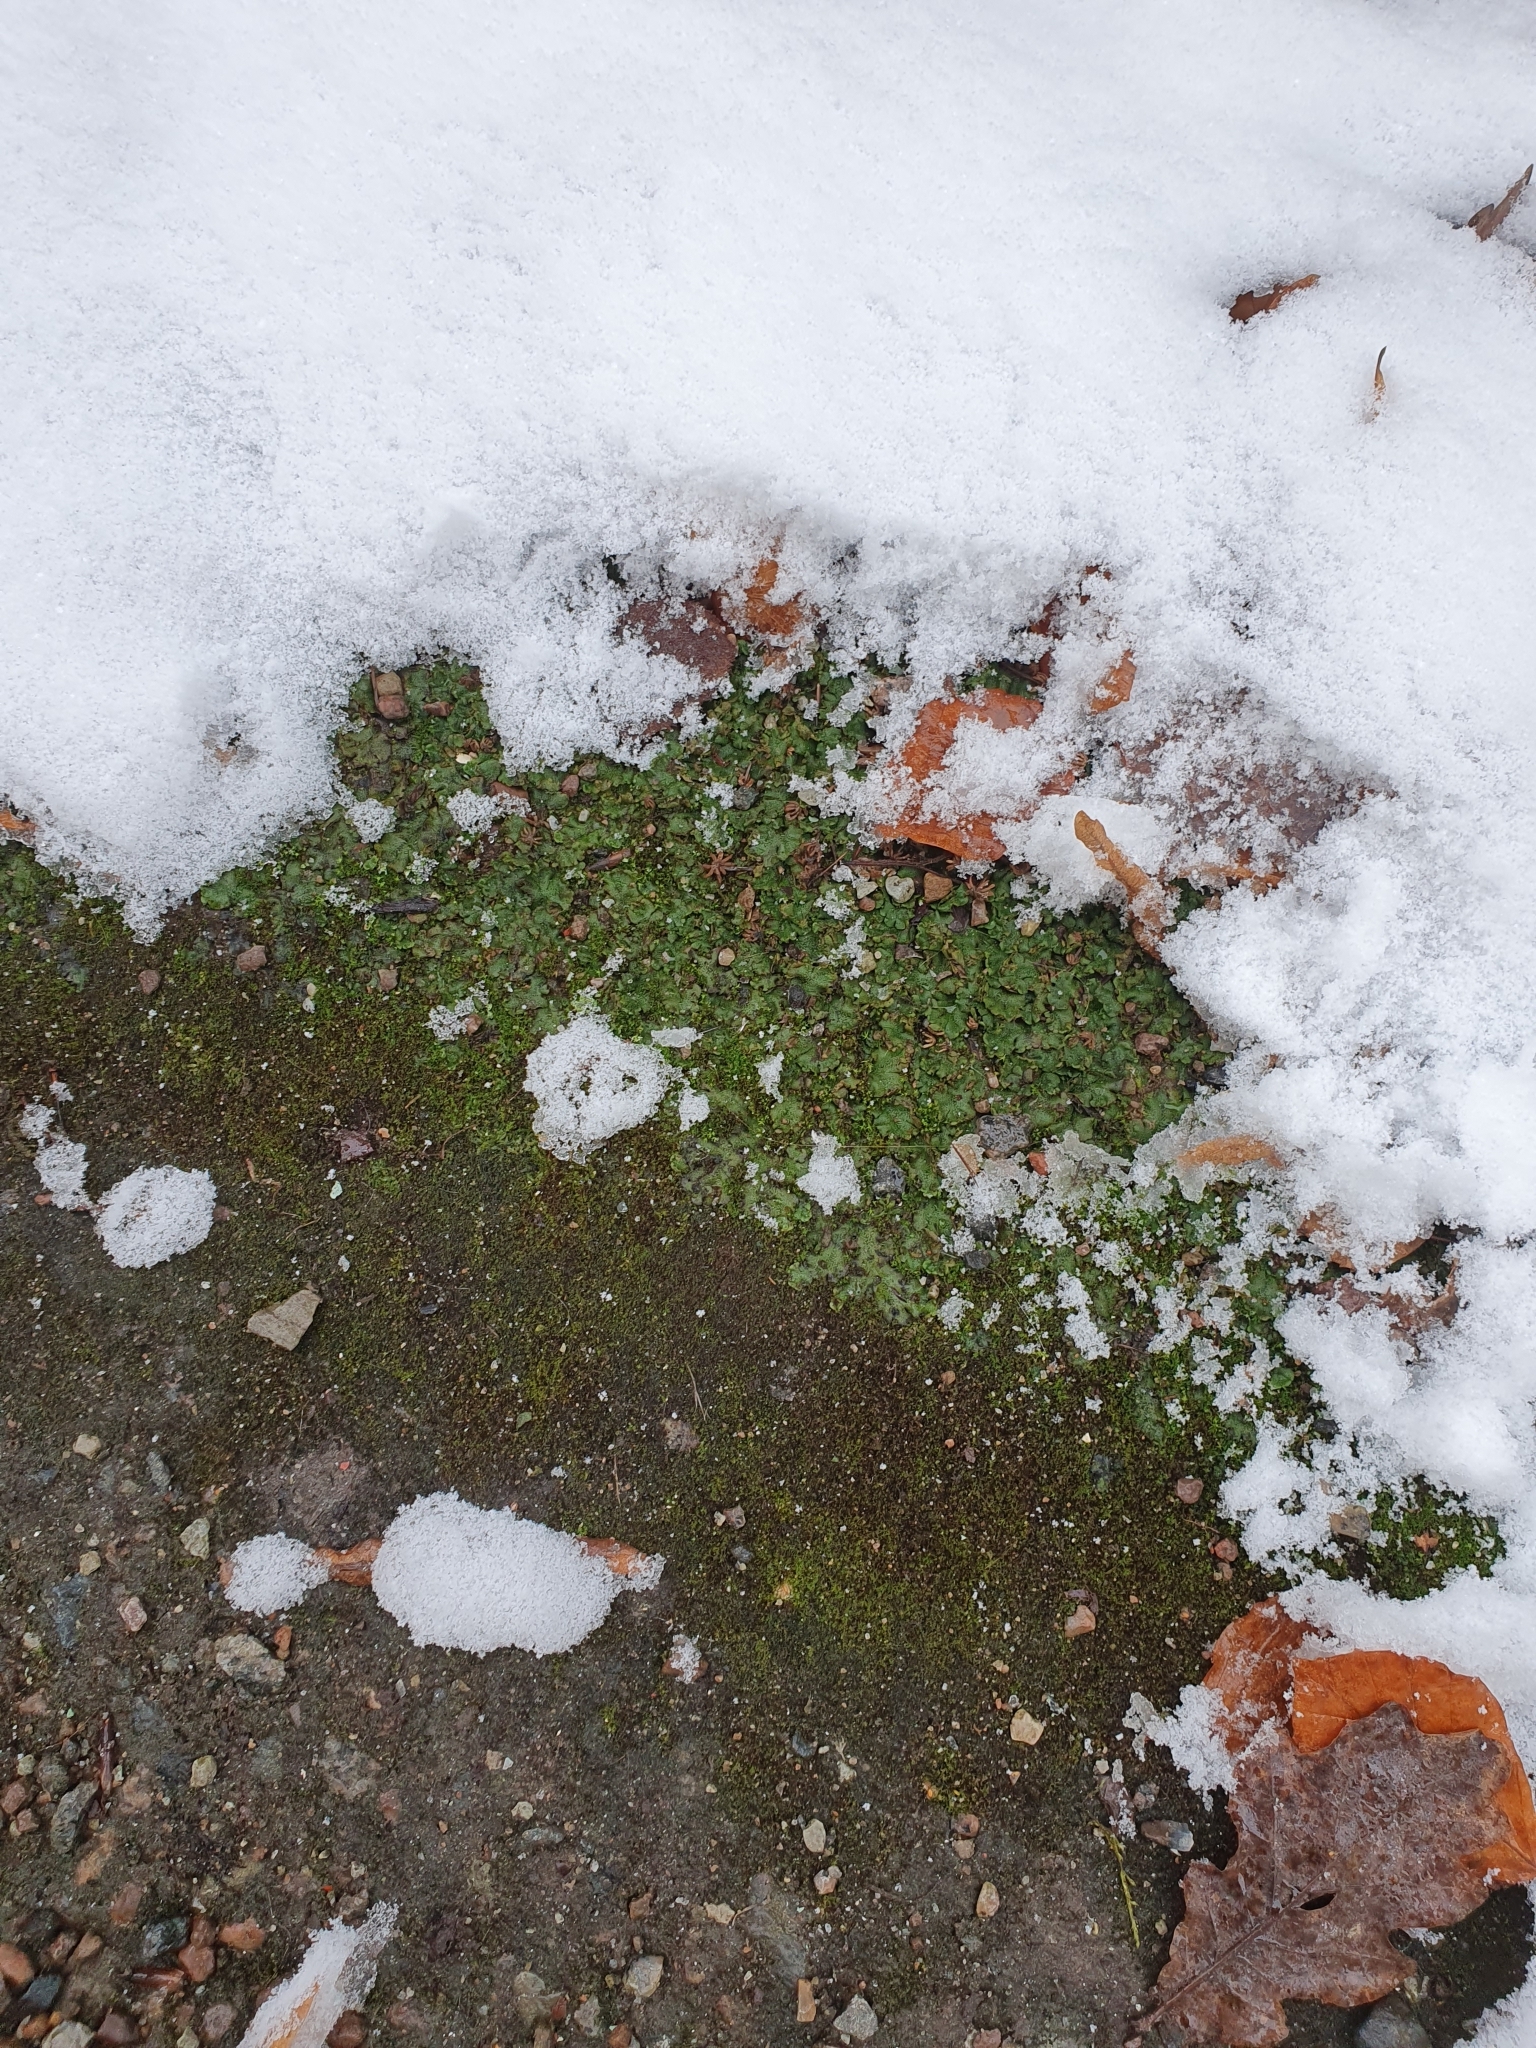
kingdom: Plantae
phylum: Marchantiophyta
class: Marchantiopsida
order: Marchantiales
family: Marchantiaceae
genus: Marchantia
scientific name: Marchantia polymorpha
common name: Common liverwort
